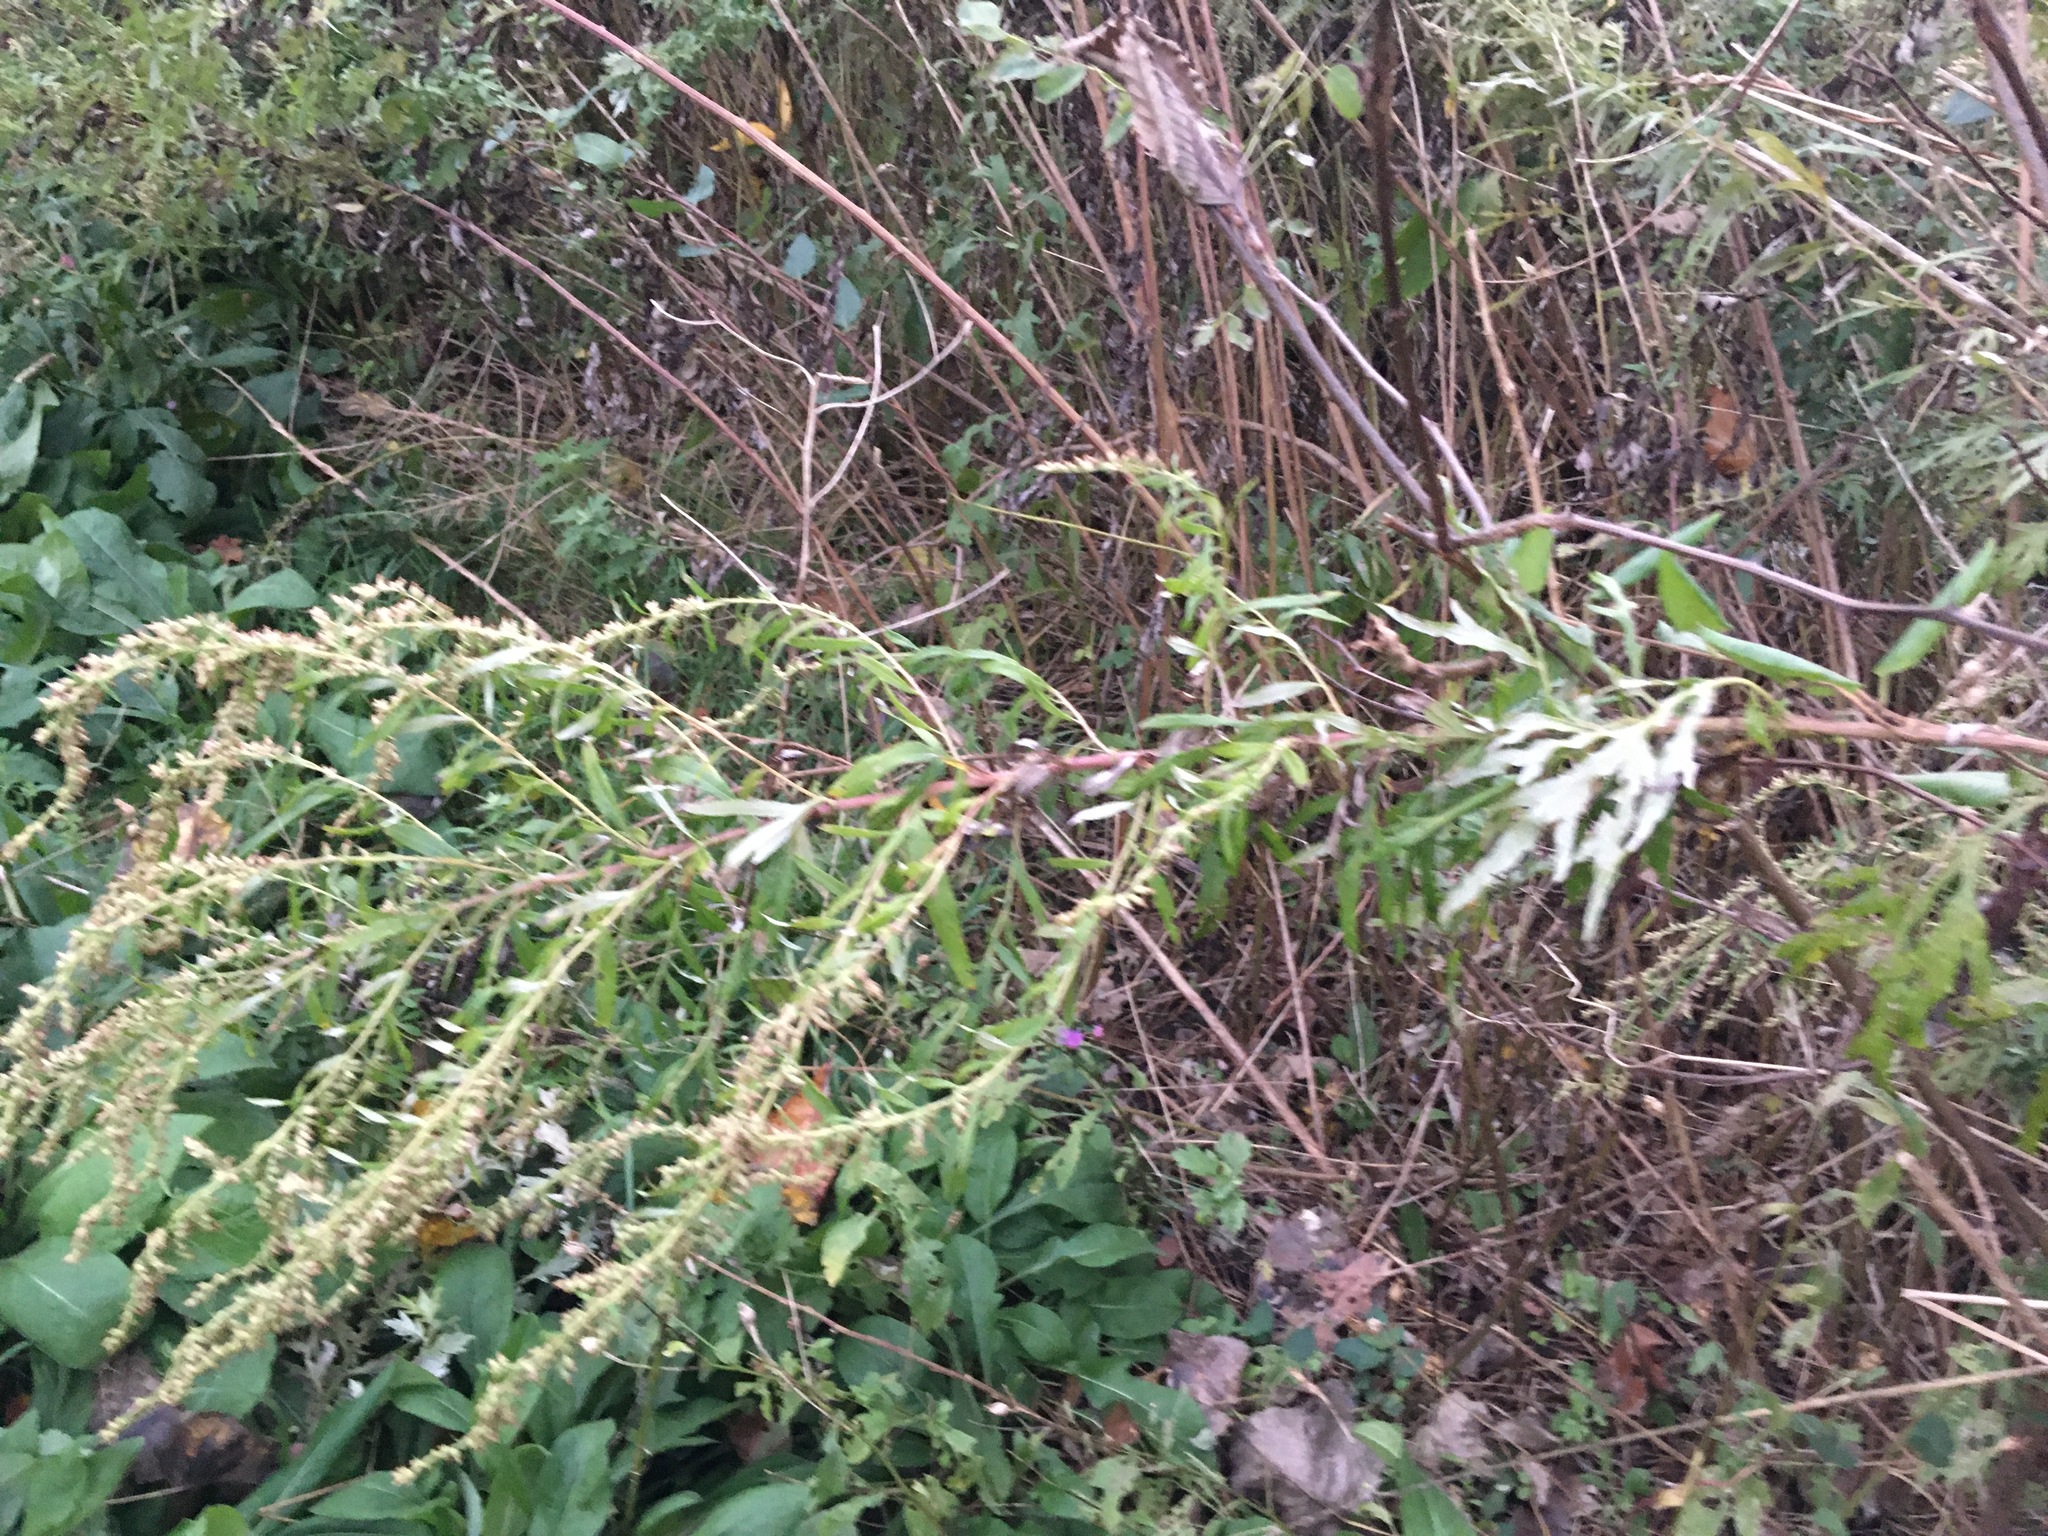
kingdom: Plantae
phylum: Tracheophyta
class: Magnoliopsida
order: Asterales
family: Asteraceae
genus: Artemisia
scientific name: Artemisia vulgaris
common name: Mugwort
